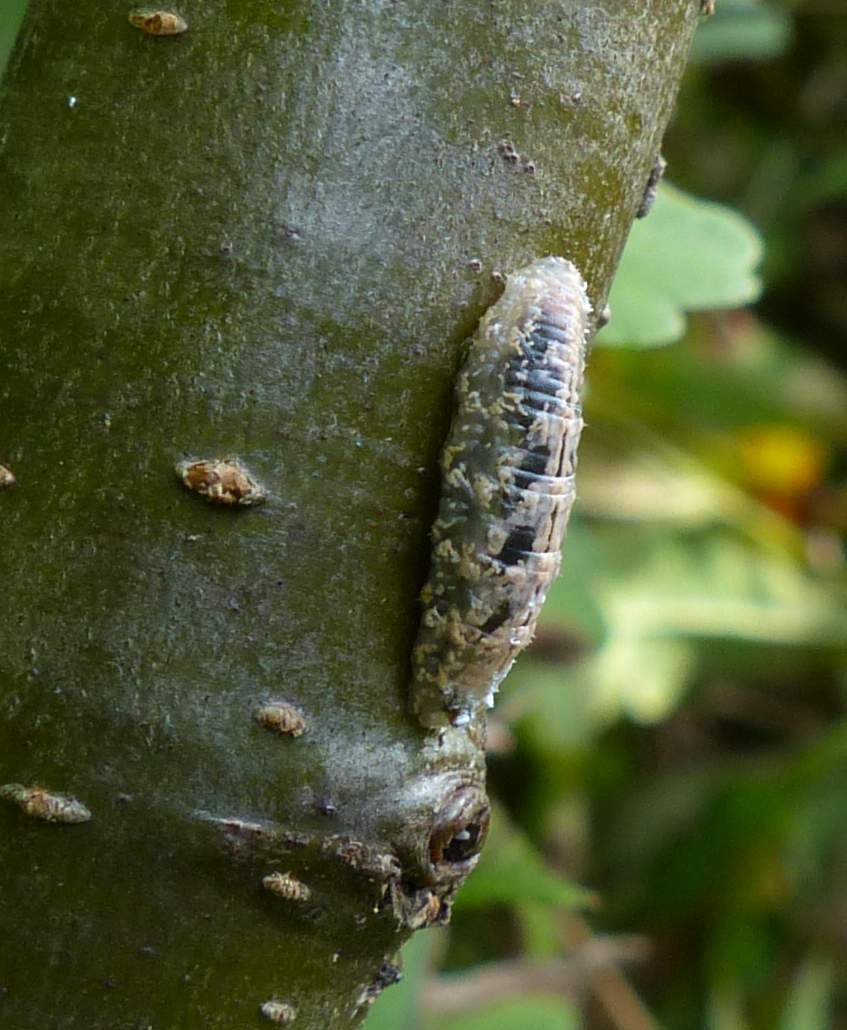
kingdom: Animalia
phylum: Arthropoda
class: Insecta
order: Diptera
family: Syrphidae
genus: Syrphus
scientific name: Syrphus
